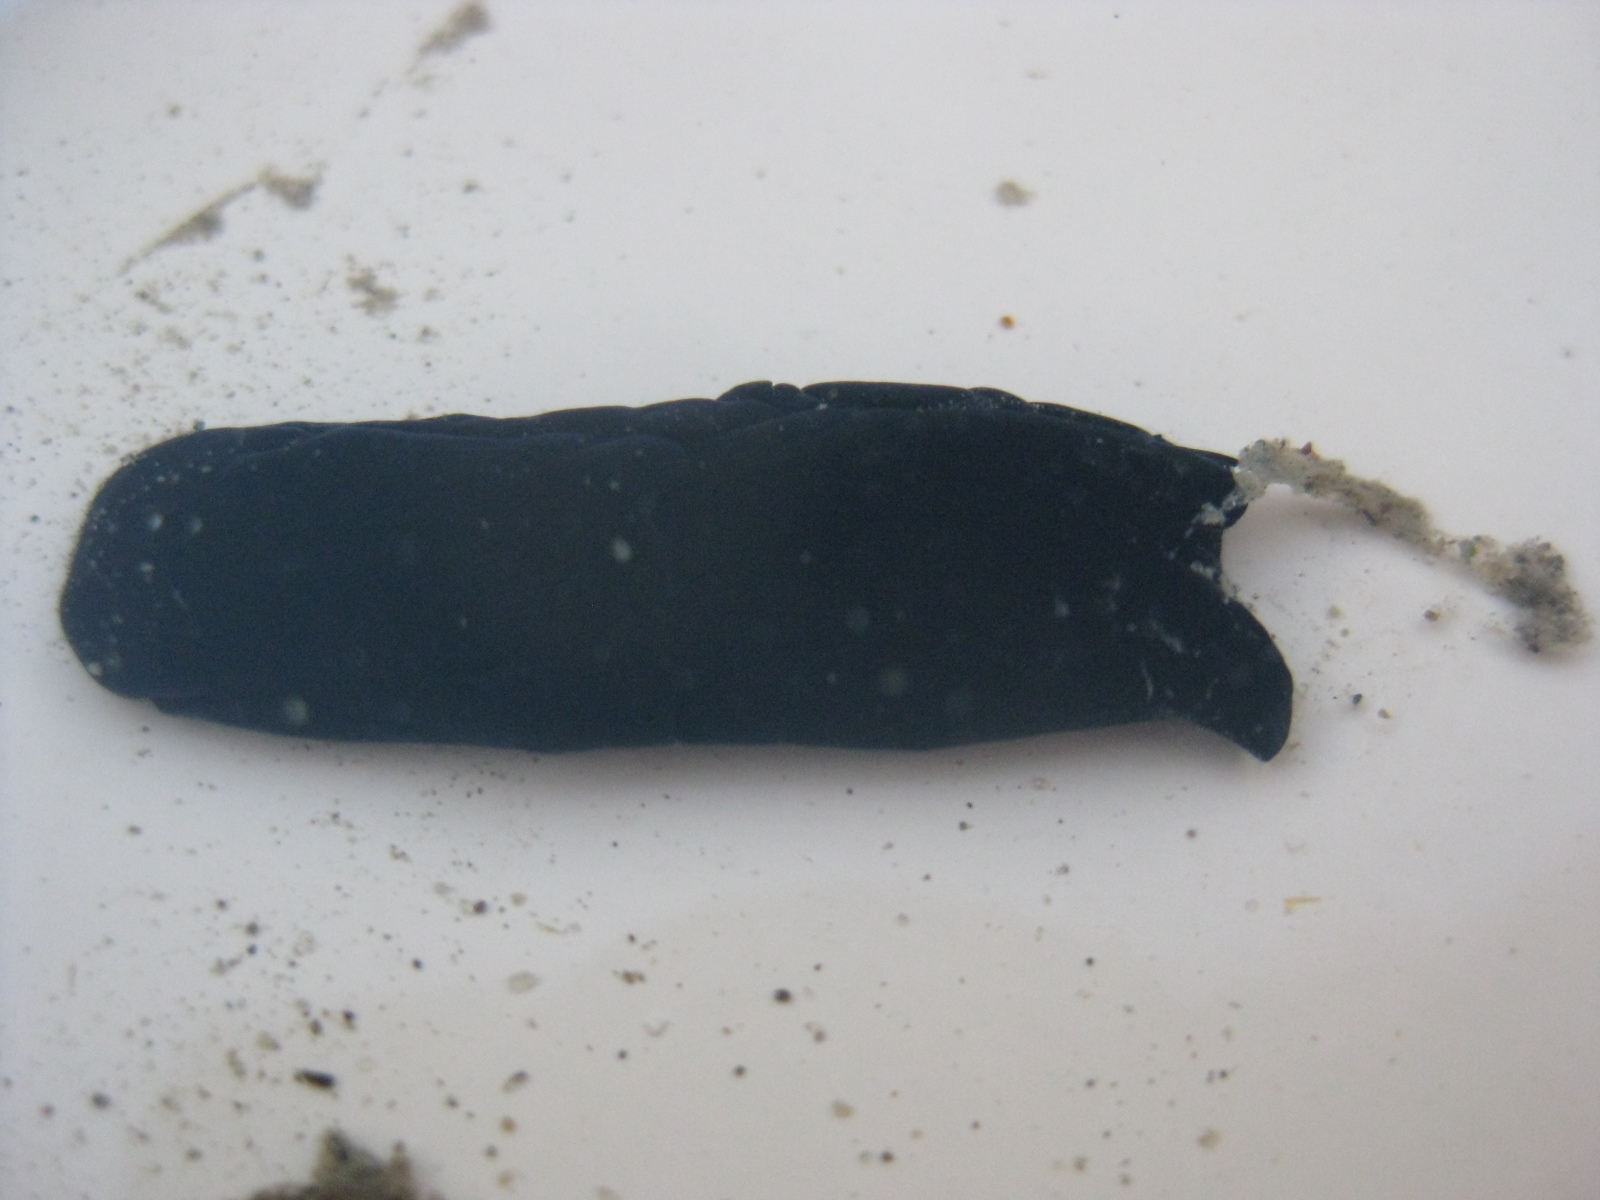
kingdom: Animalia
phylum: Mollusca
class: Gastropoda
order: Cephalaspidea
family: Aglajidae
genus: Melanochlamys
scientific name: Melanochlamys cylindrica
